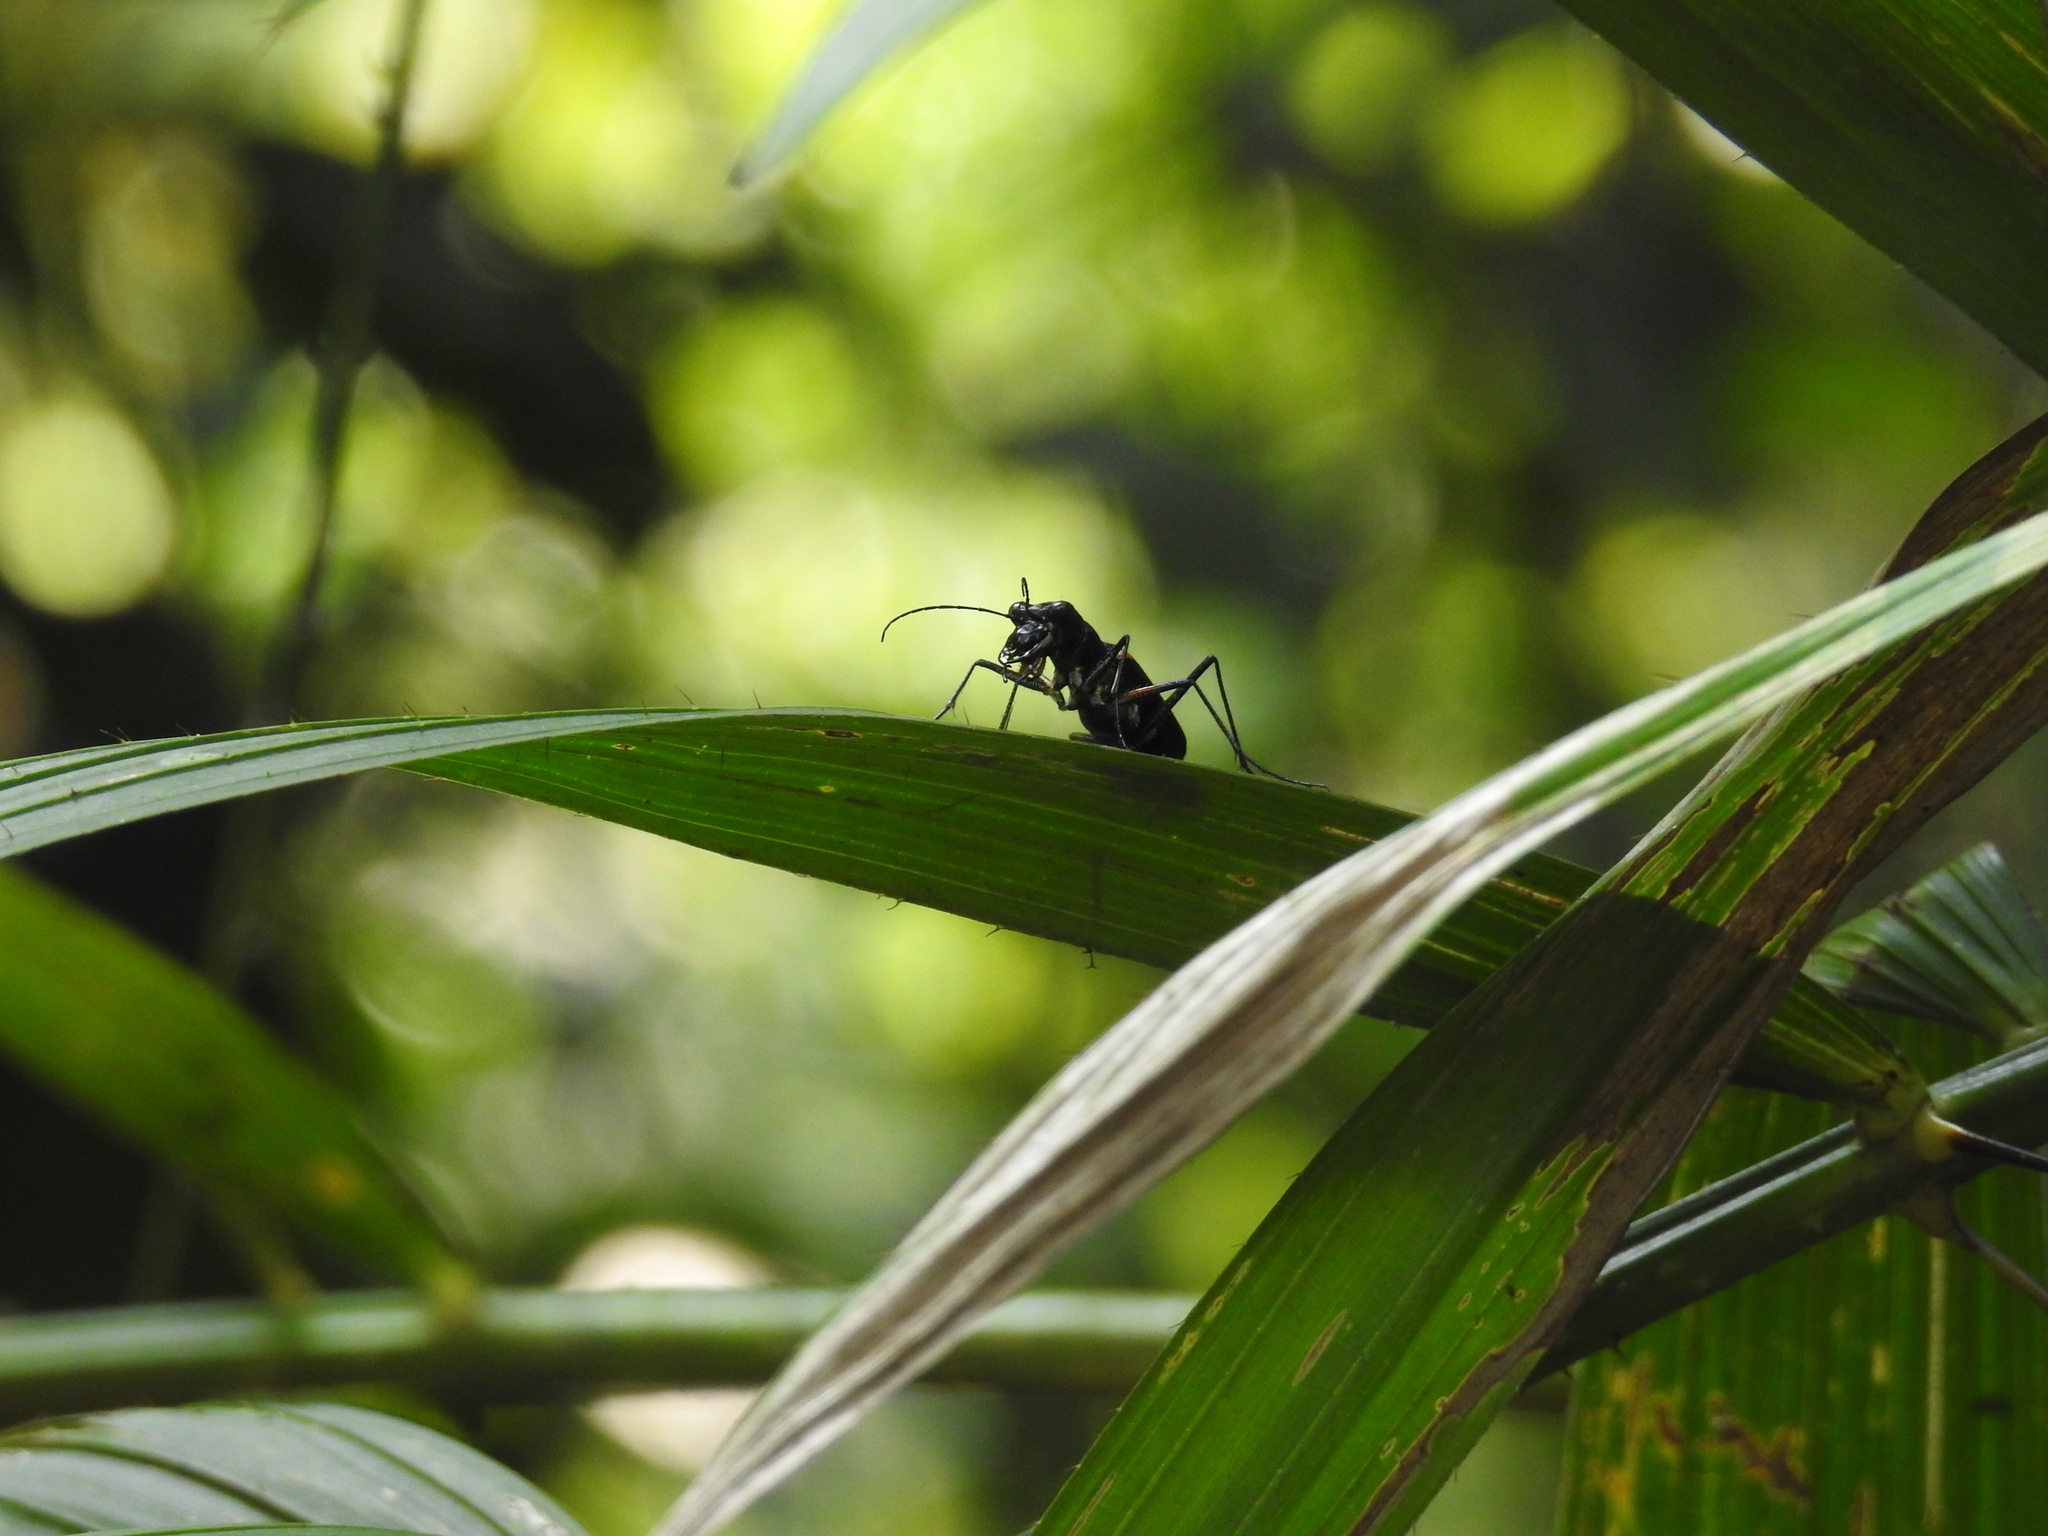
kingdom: Animalia
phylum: Arthropoda
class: Insecta
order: Coleoptera
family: Carabidae
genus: Cicindela
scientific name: Cicindela assamensis
